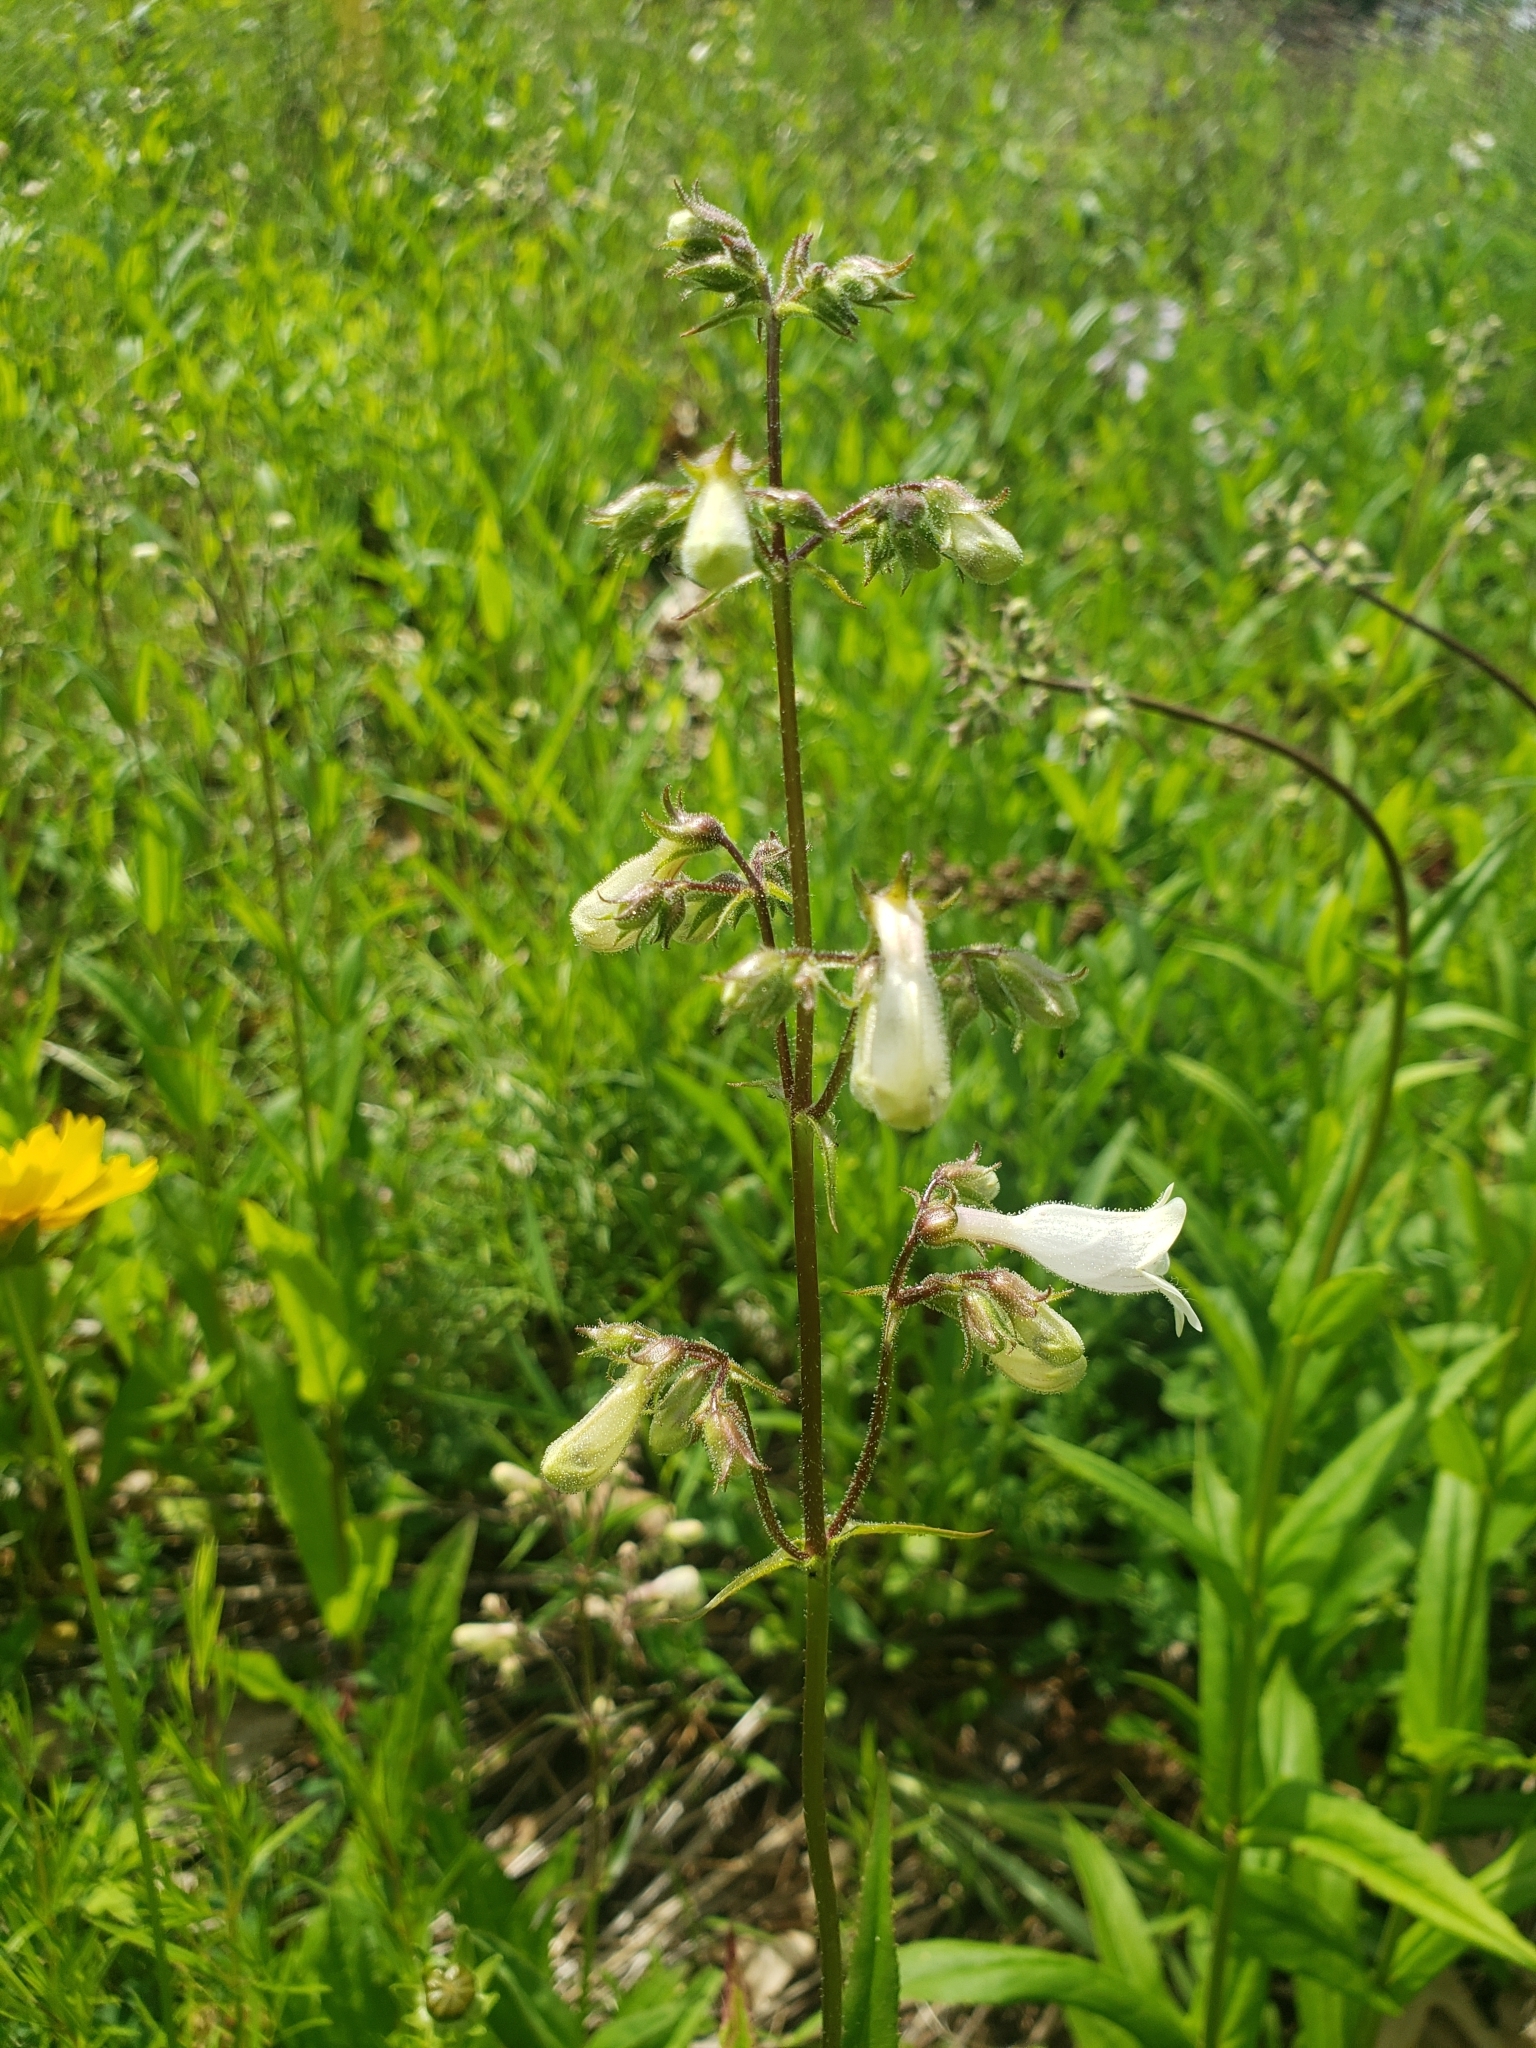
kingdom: Plantae
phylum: Tracheophyta
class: Magnoliopsida
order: Lamiales
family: Plantaginaceae
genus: Penstemon
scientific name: Penstemon digitalis
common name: Foxglove beardtongue
